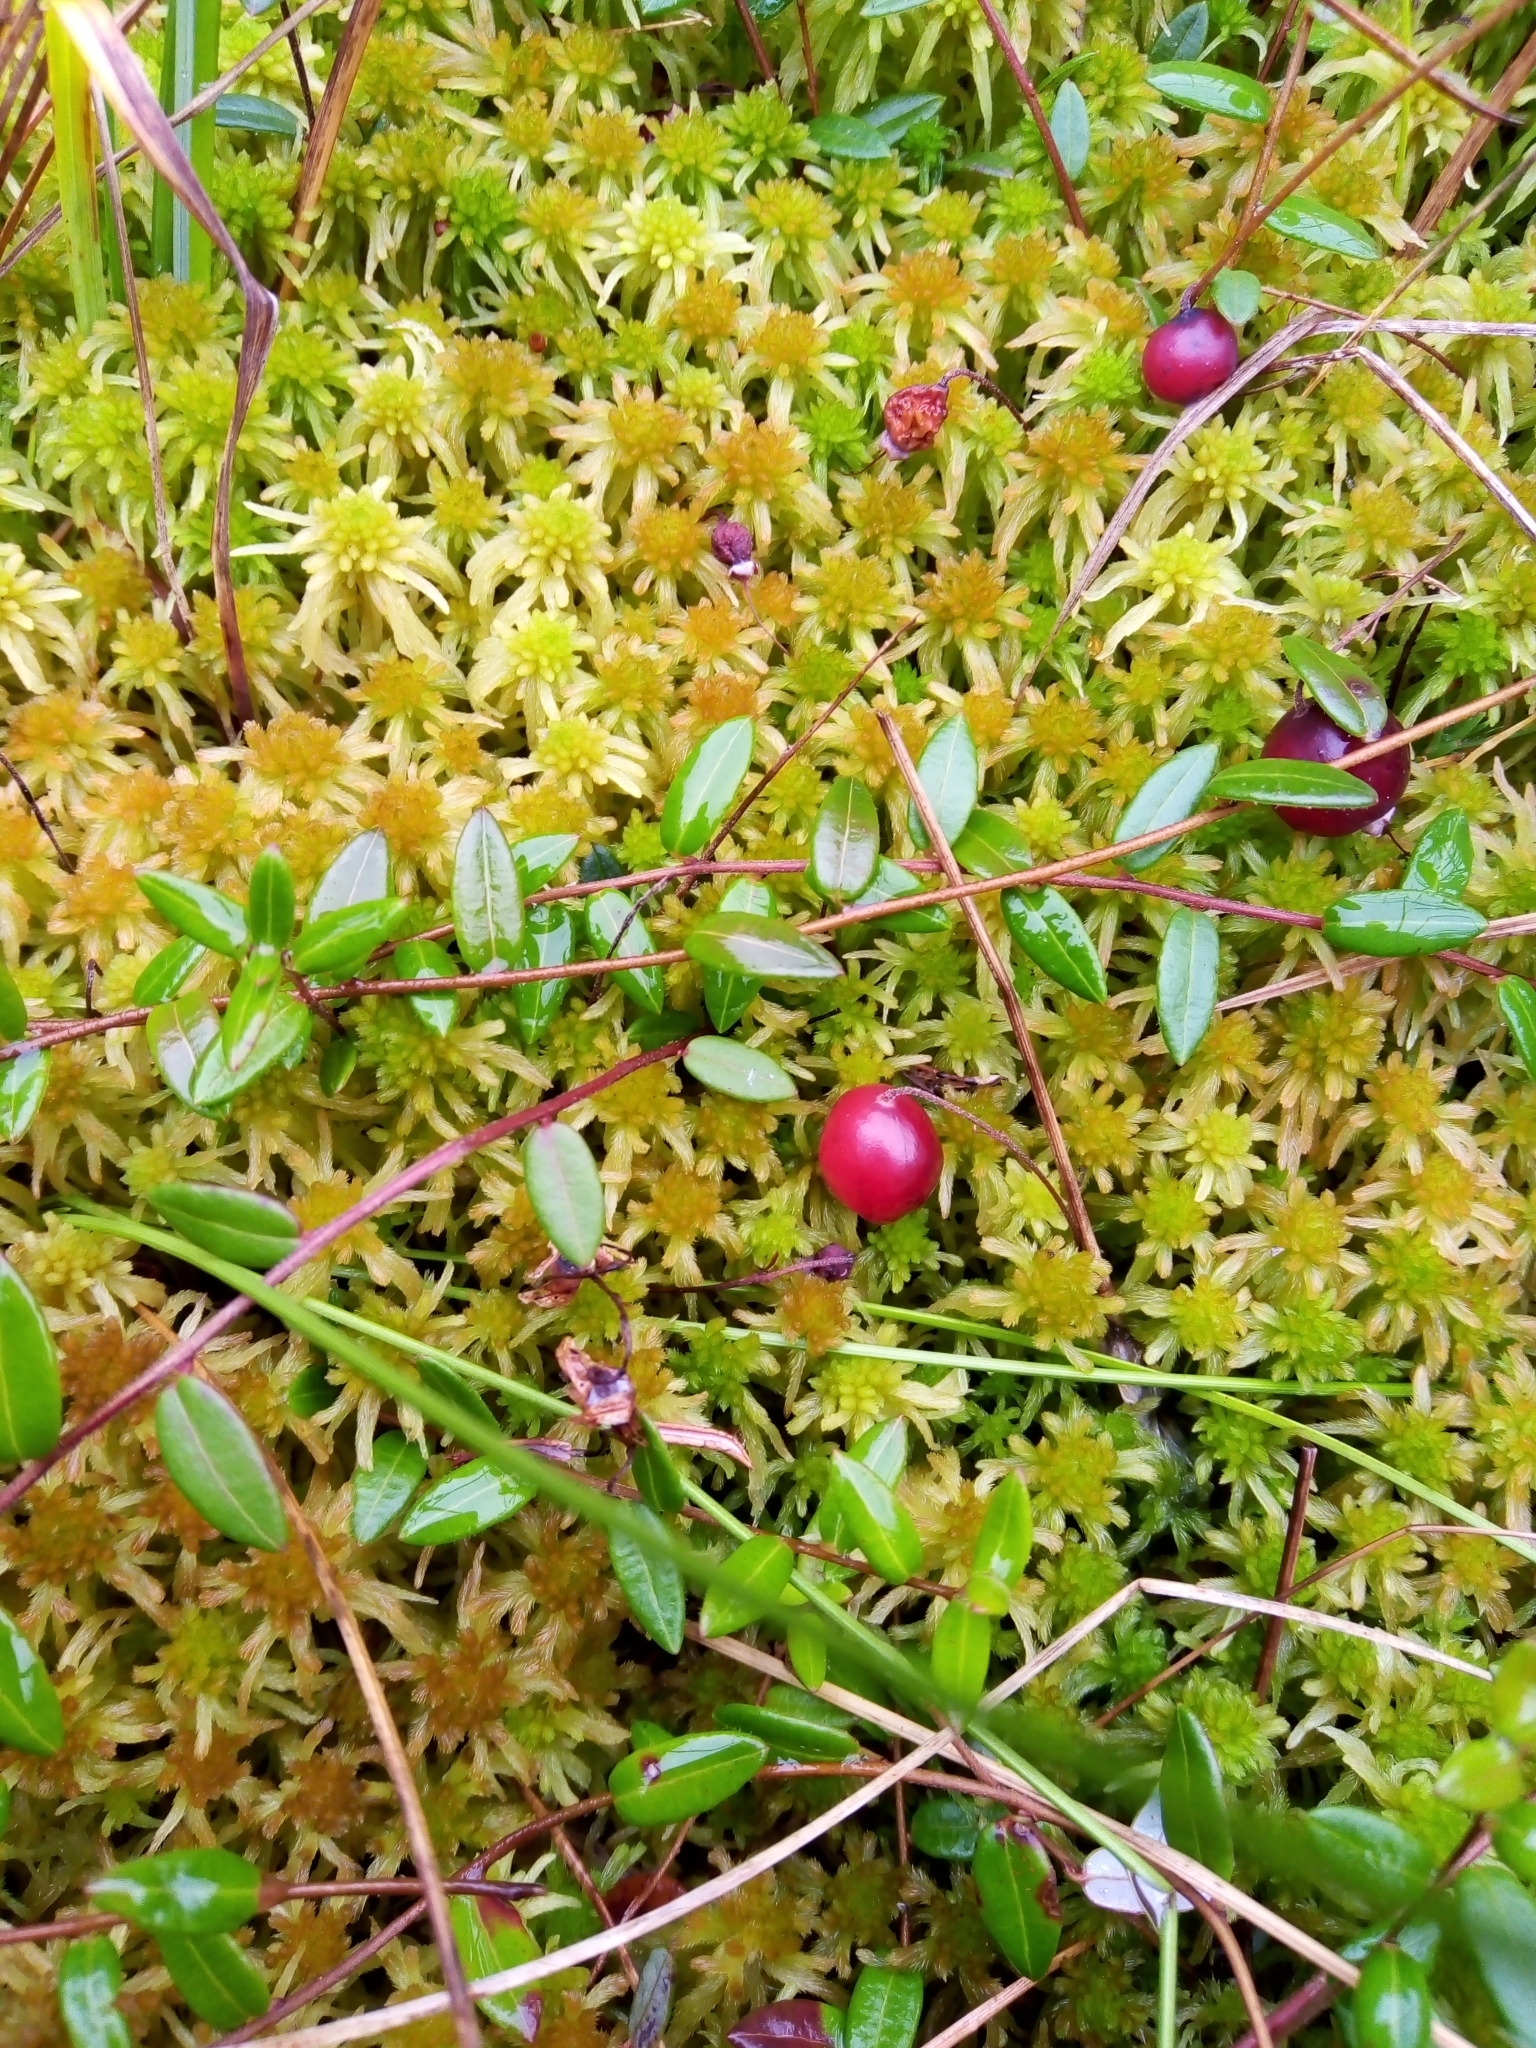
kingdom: Plantae
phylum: Tracheophyta
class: Magnoliopsida
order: Ericales
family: Ericaceae
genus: Vaccinium
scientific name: Vaccinium oxycoccos
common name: Cranberry
